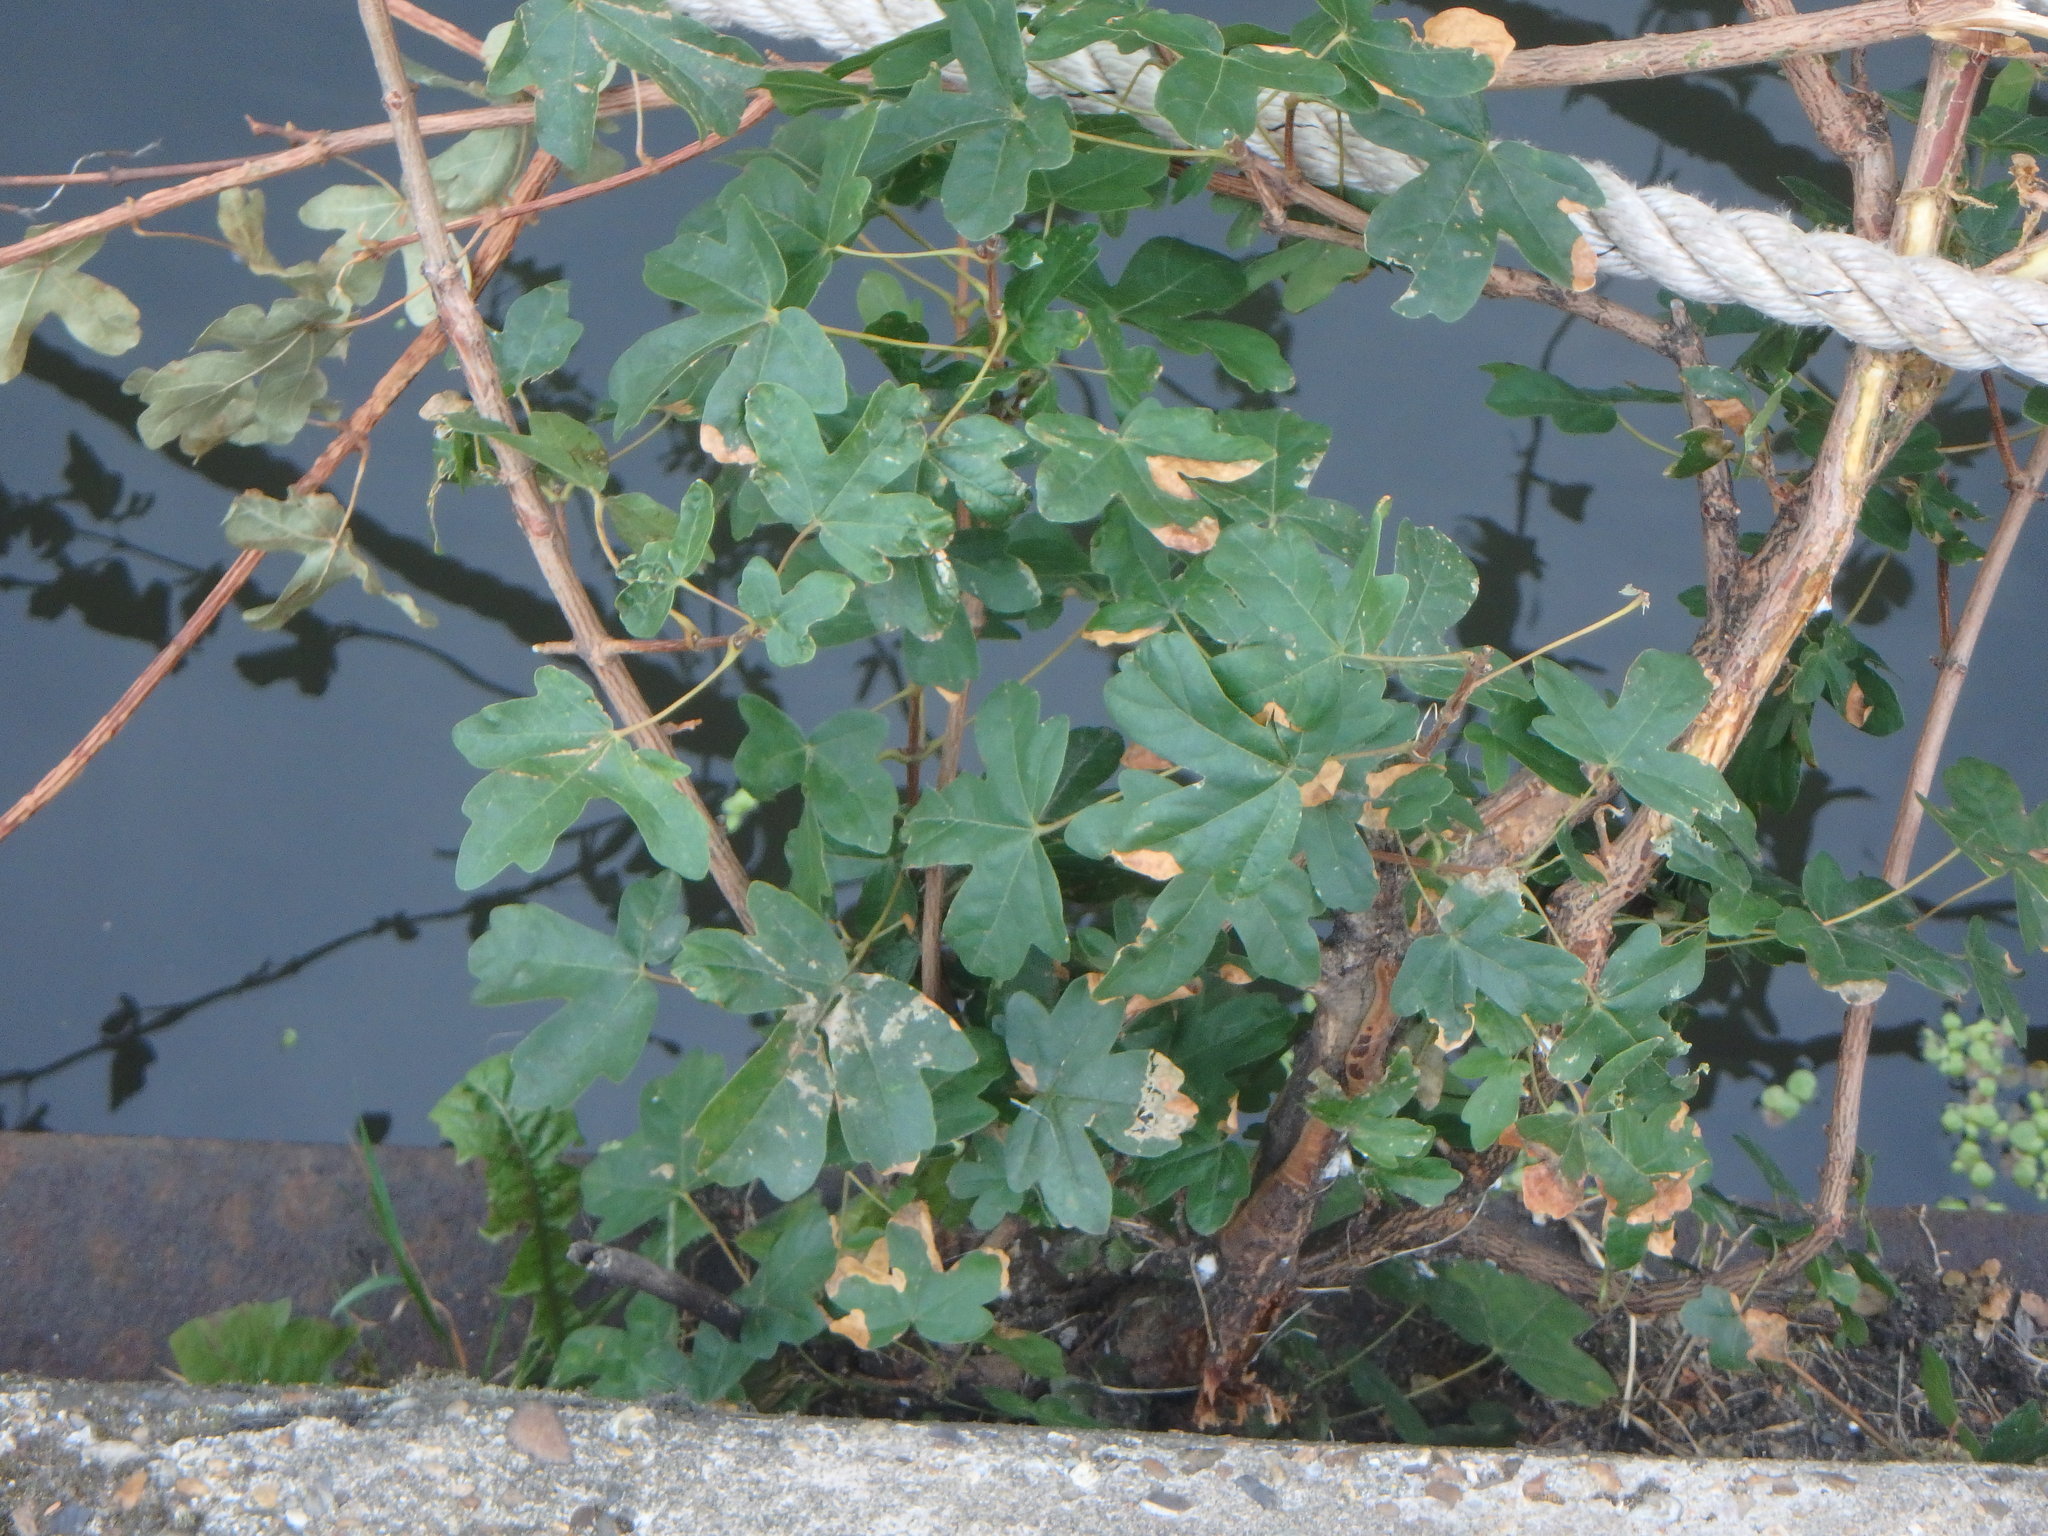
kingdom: Plantae
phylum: Tracheophyta
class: Magnoliopsida
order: Sapindales
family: Sapindaceae
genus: Acer
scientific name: Acer campestre
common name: Field maple
